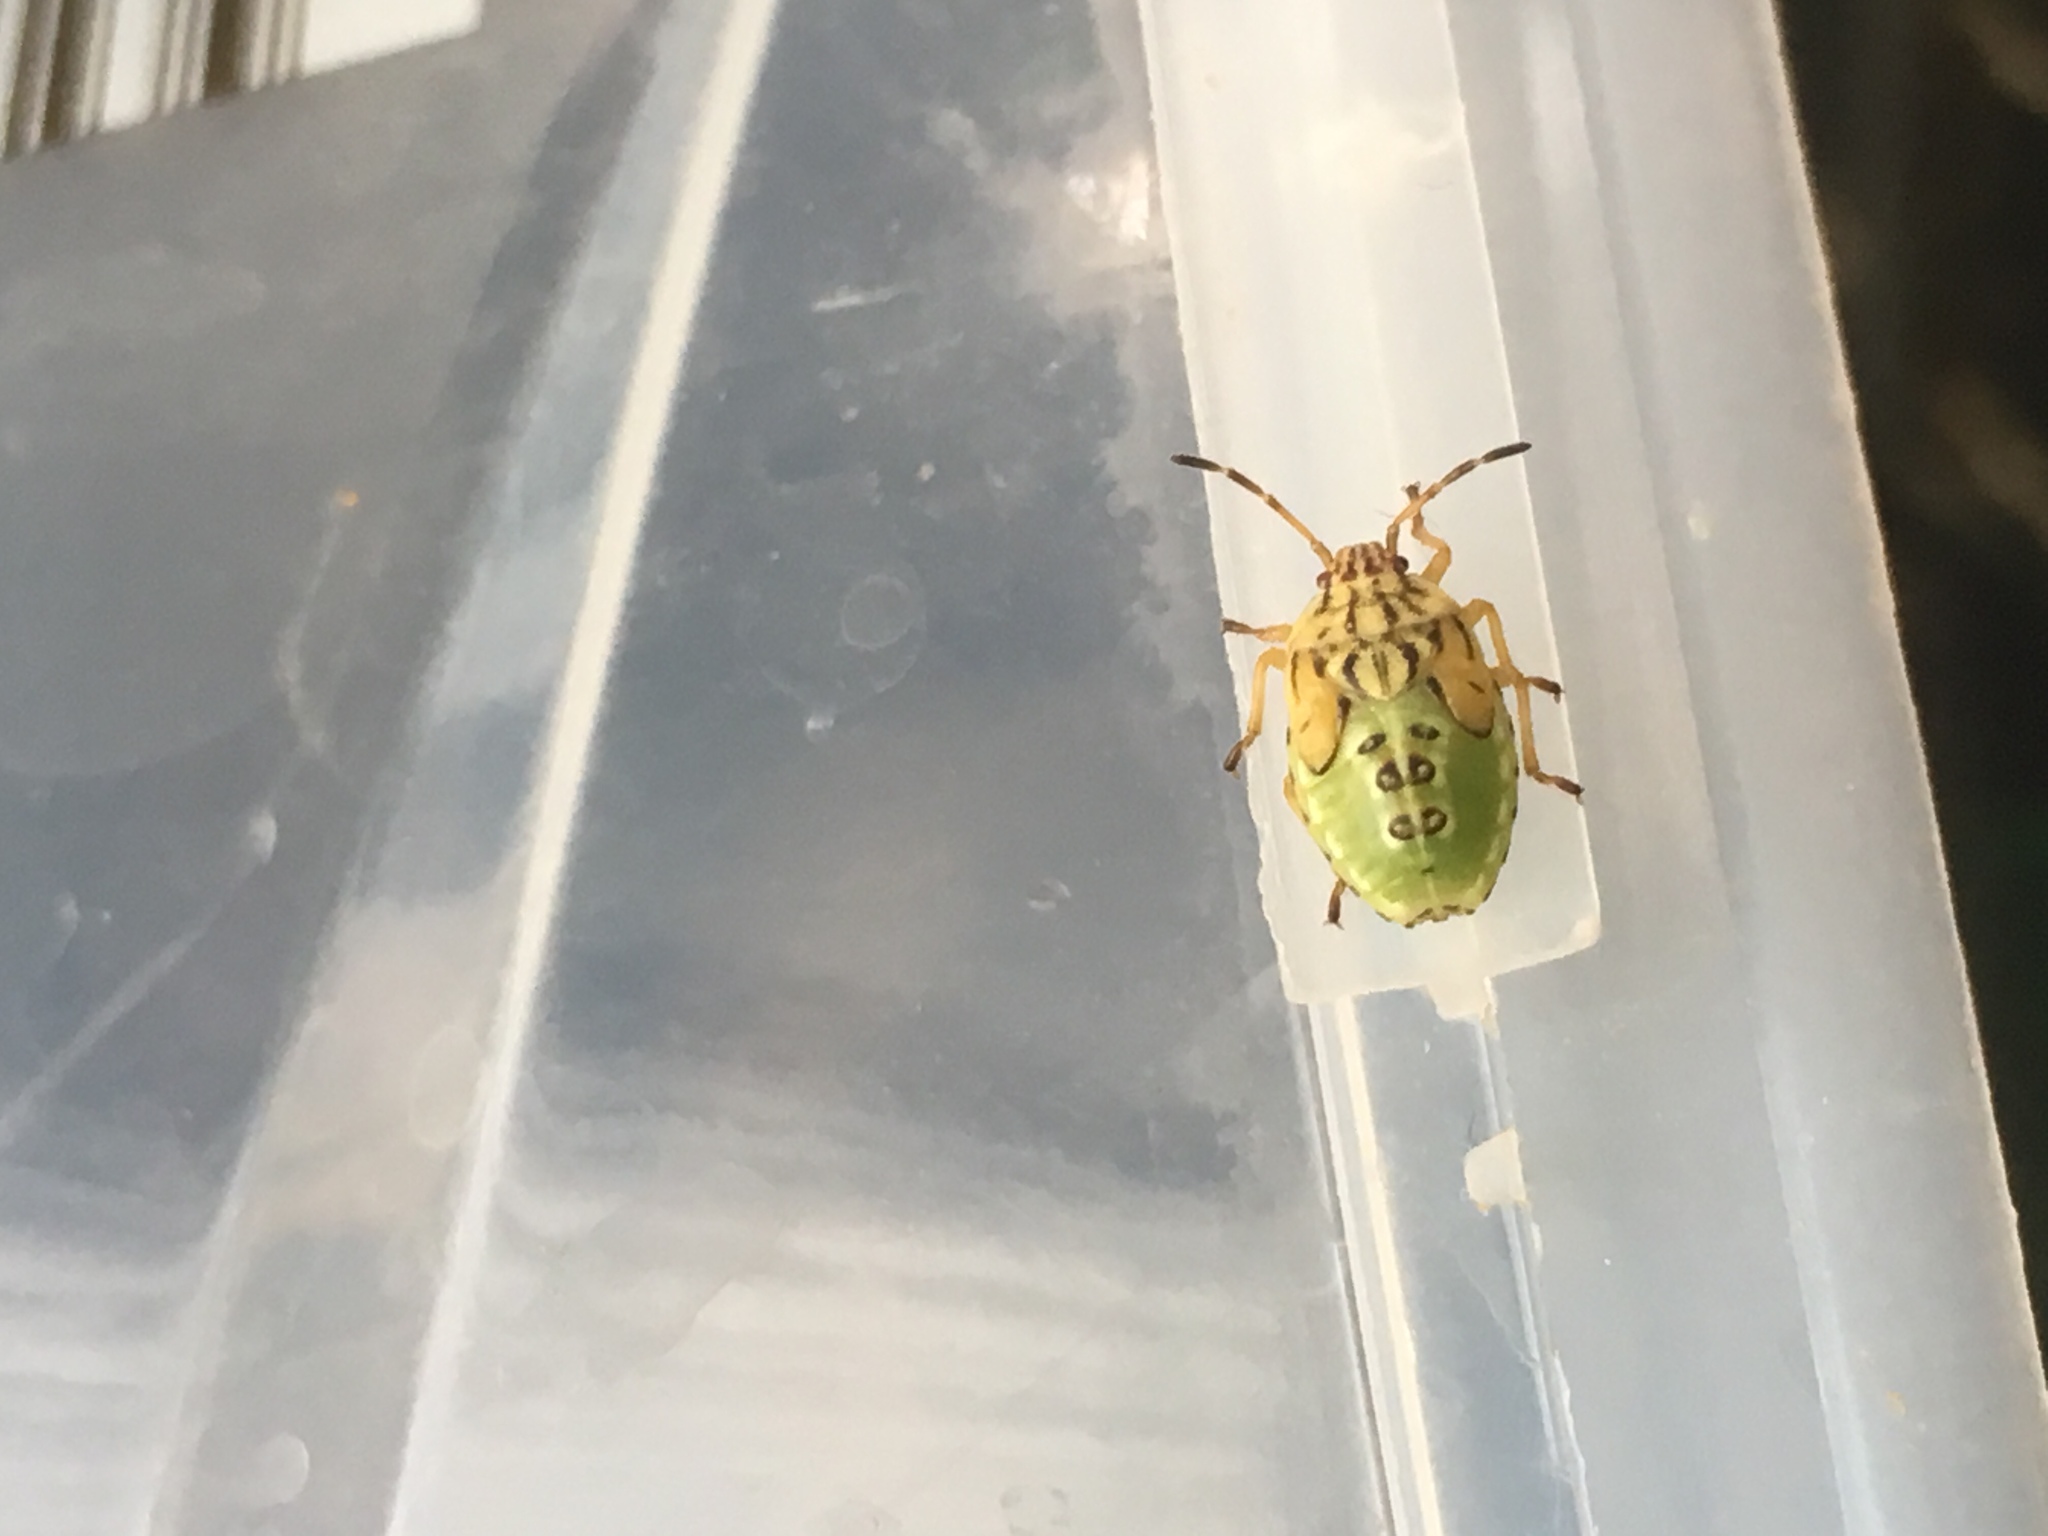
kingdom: Animalia
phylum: Arthropoda
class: Insecta
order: Hemiptera
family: Acanthosomatidae
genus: Elasmucha
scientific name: Elasmucha grisea
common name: Parent bug
